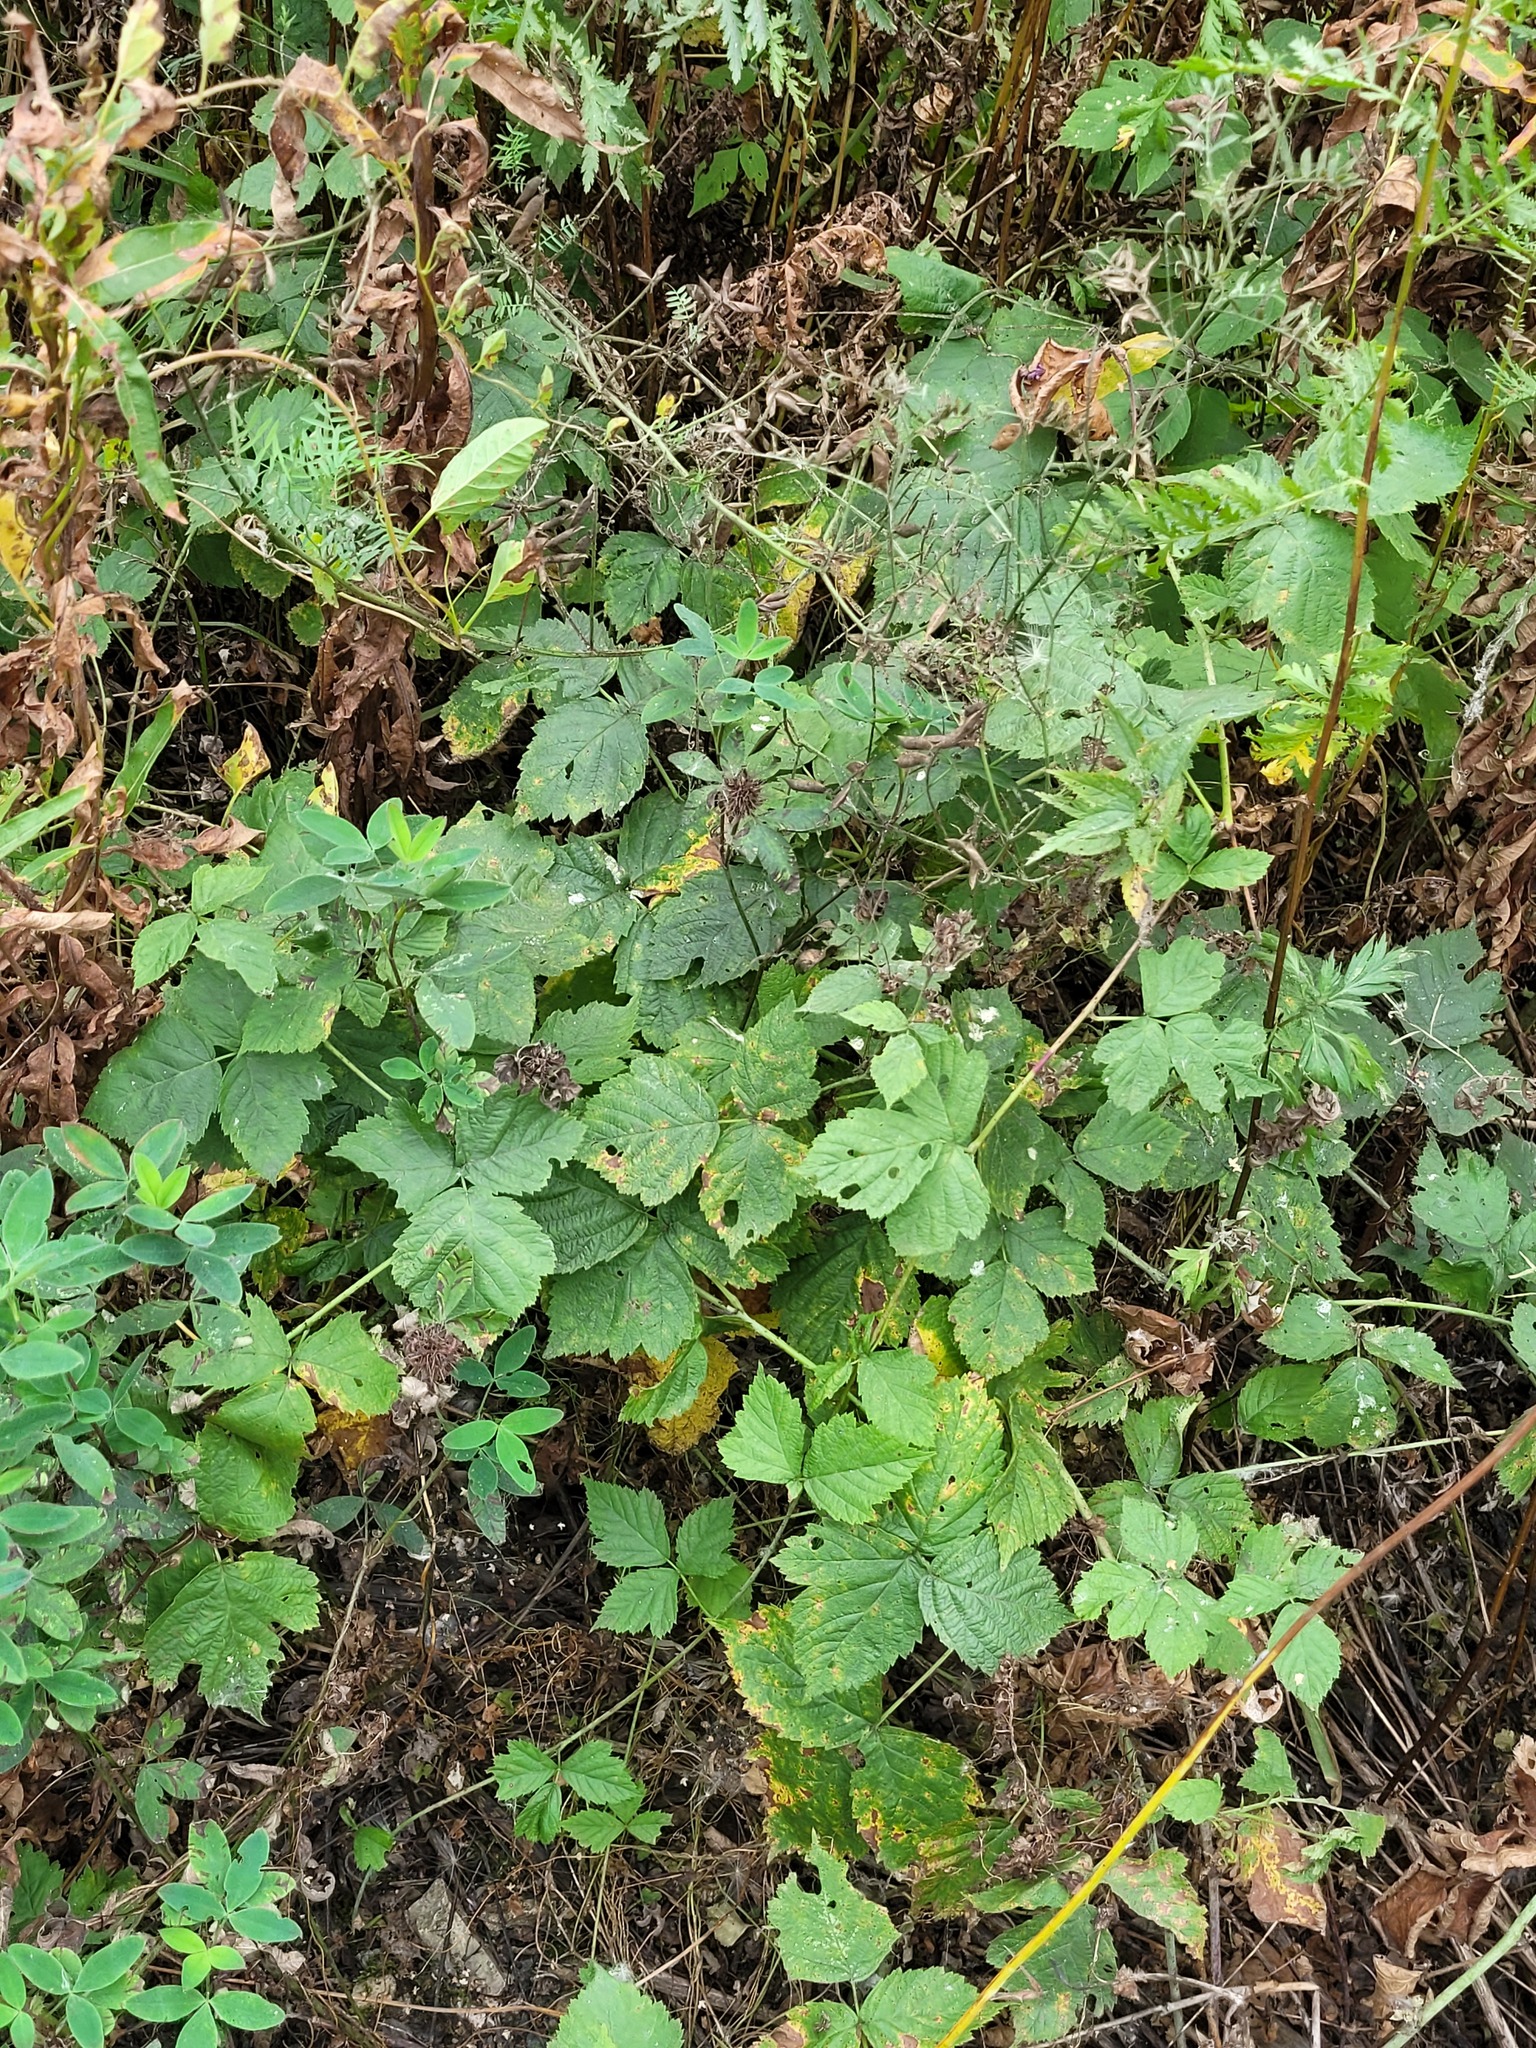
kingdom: Plantae
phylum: Tracheophyta
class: Magnoliopsida
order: Rosales
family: Rosaceae
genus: Rubus
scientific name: Rubus caesius
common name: Dewberry
